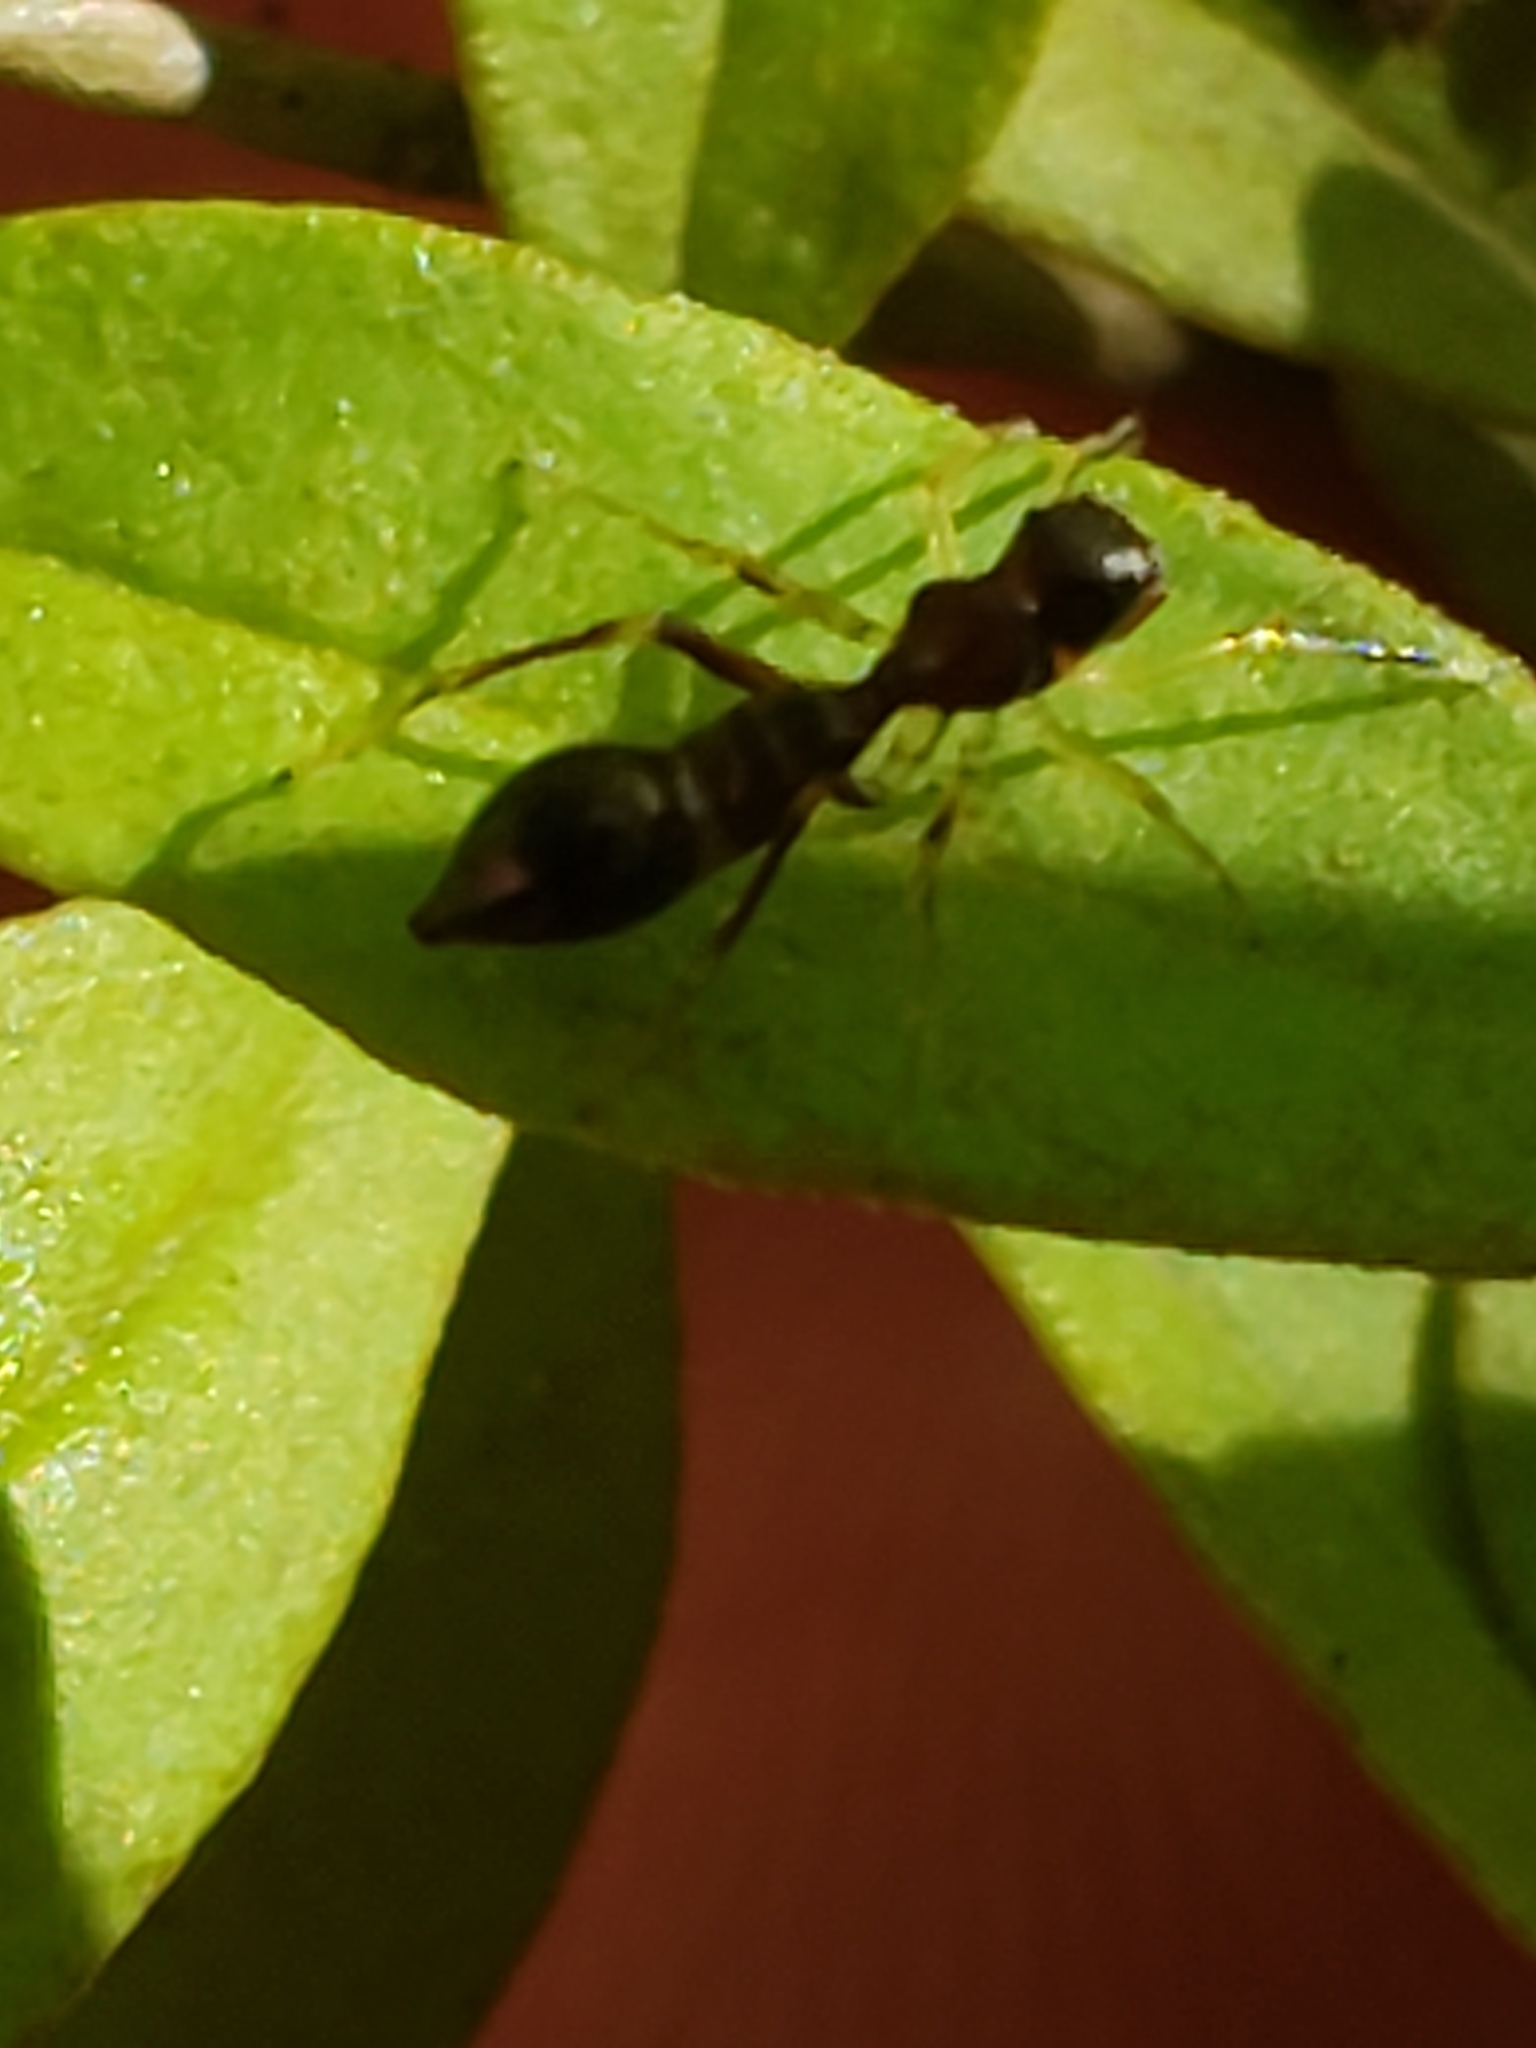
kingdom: Animalia
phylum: Arthropoda
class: Arachnida
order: Araneae
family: Salticidae
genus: Synemosyna
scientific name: Synemosyna formica
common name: Slender ant-mimic jumping spider
